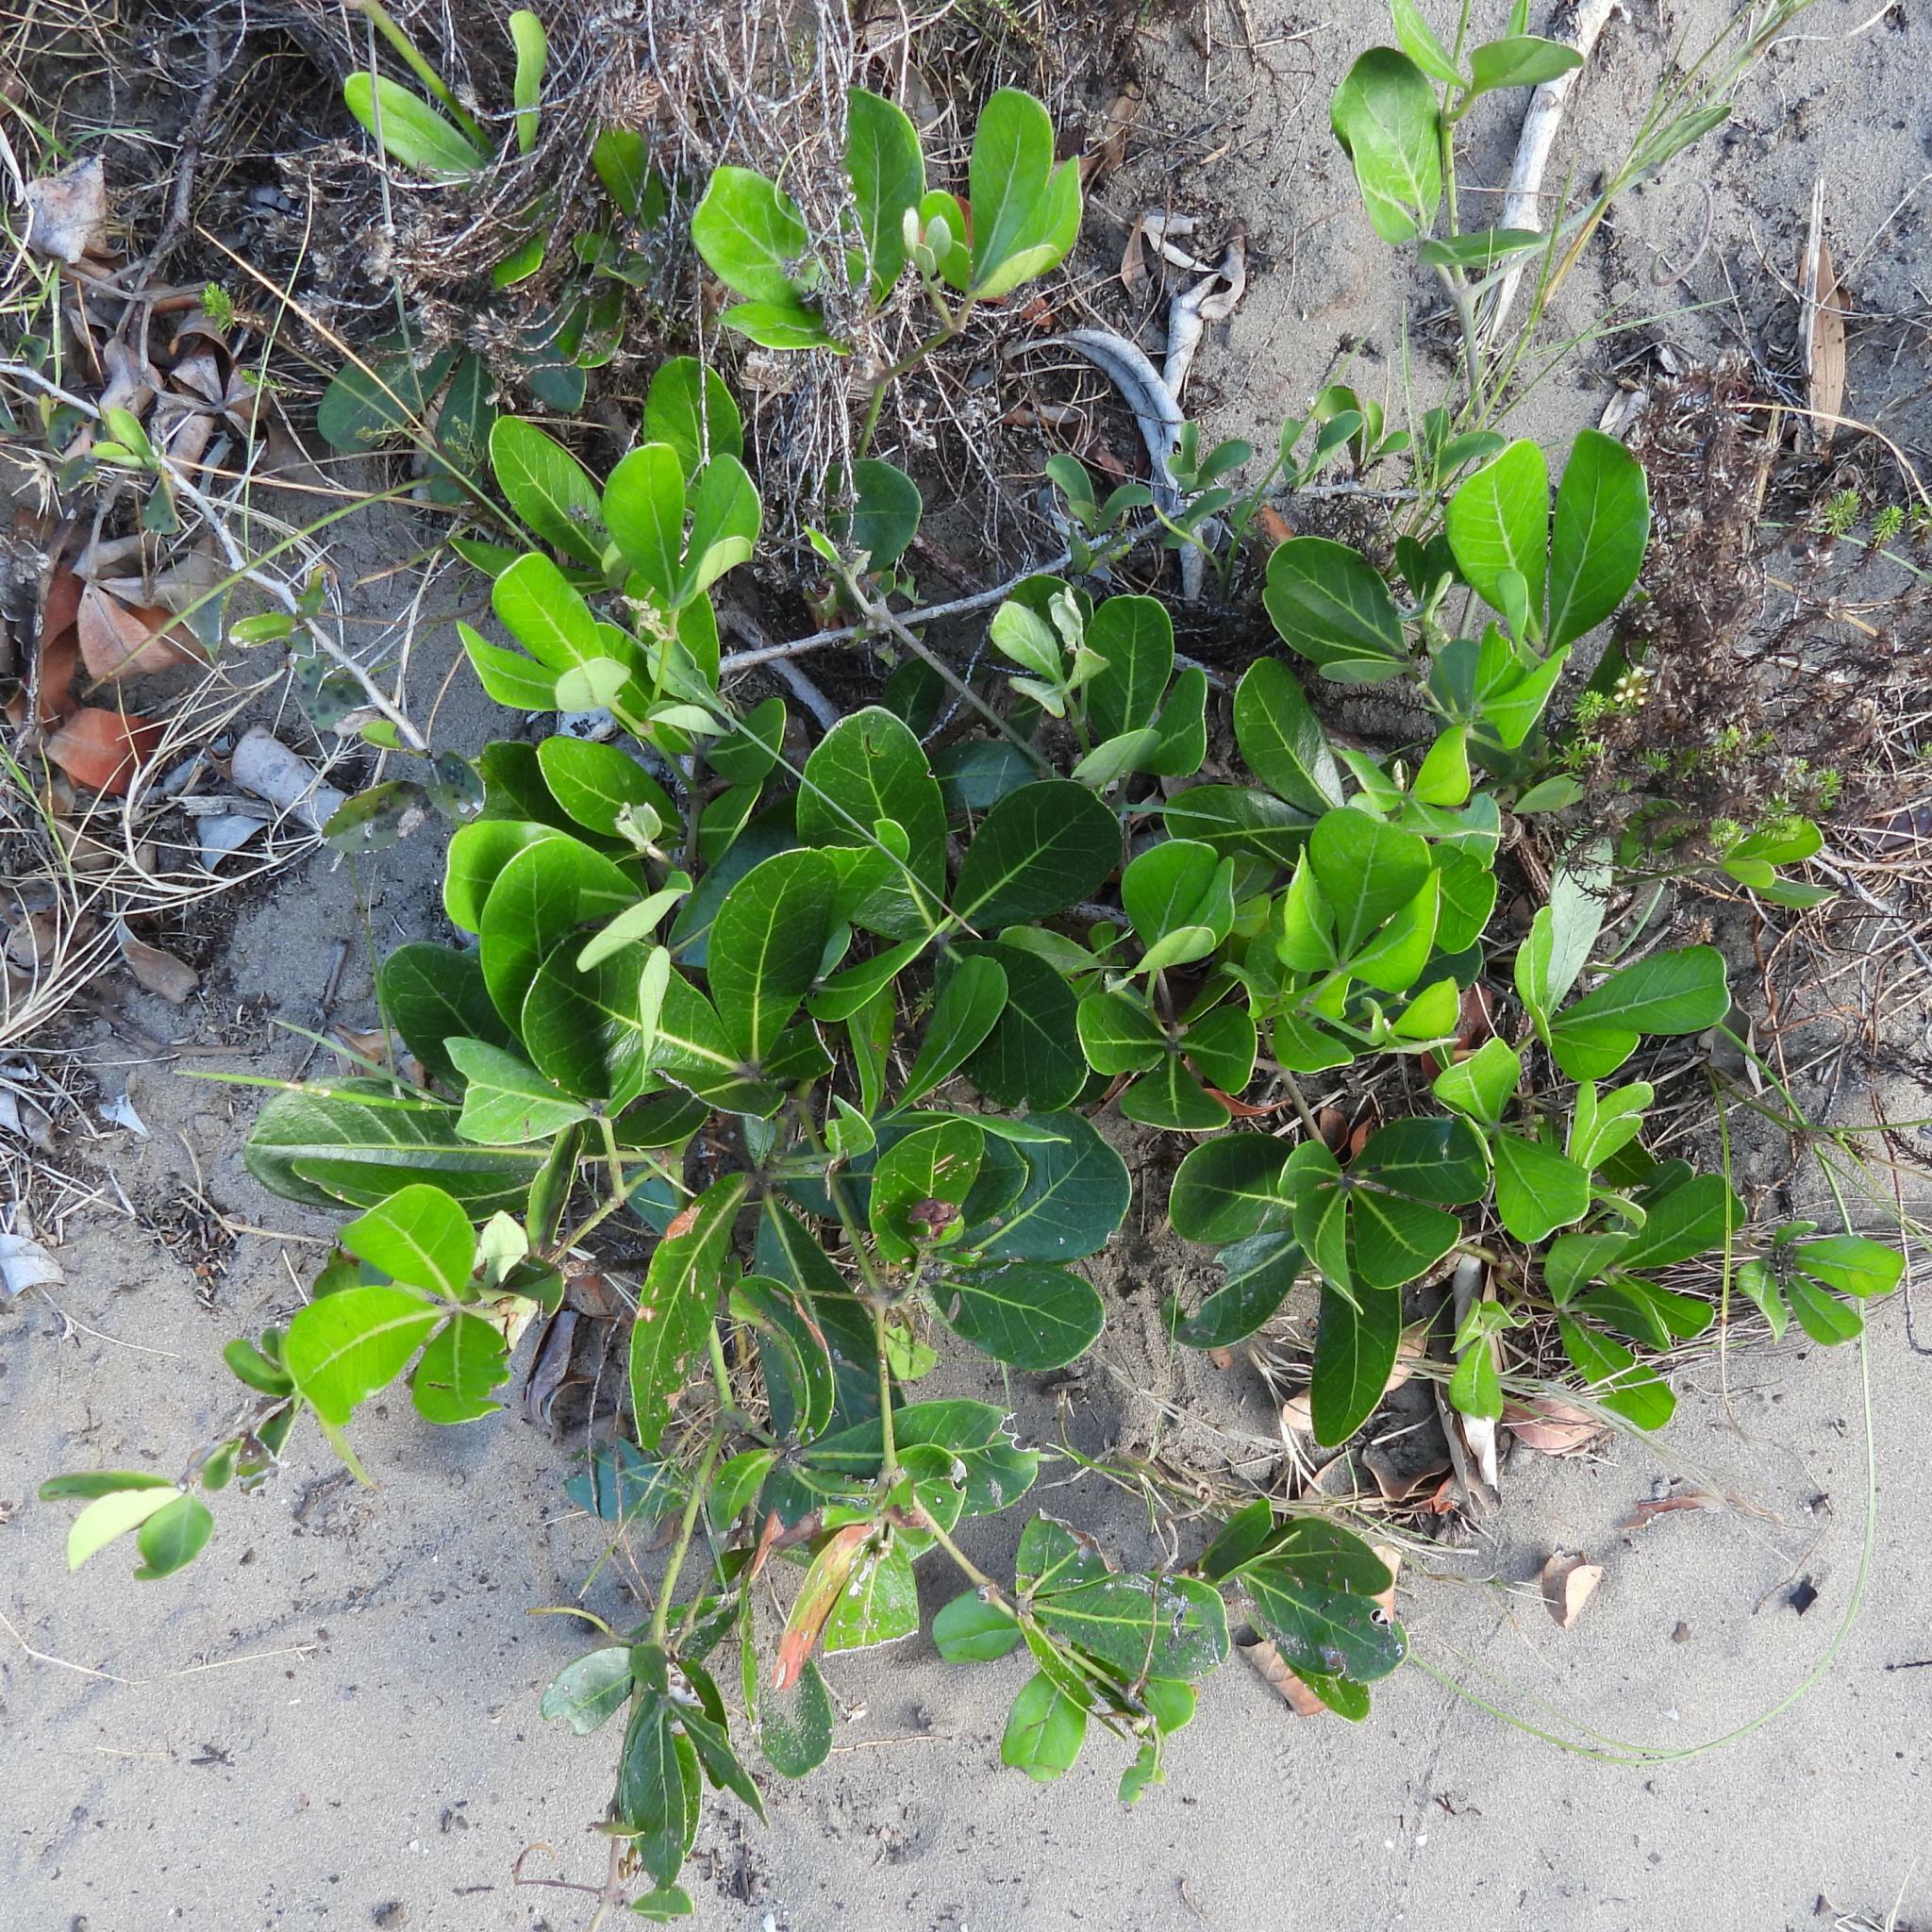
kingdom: Plantae
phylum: Tracheophyta
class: Magnoliopsida
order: Vitales
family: Vitaceae
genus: Rhoicissus
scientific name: Rhoicissus digitata
